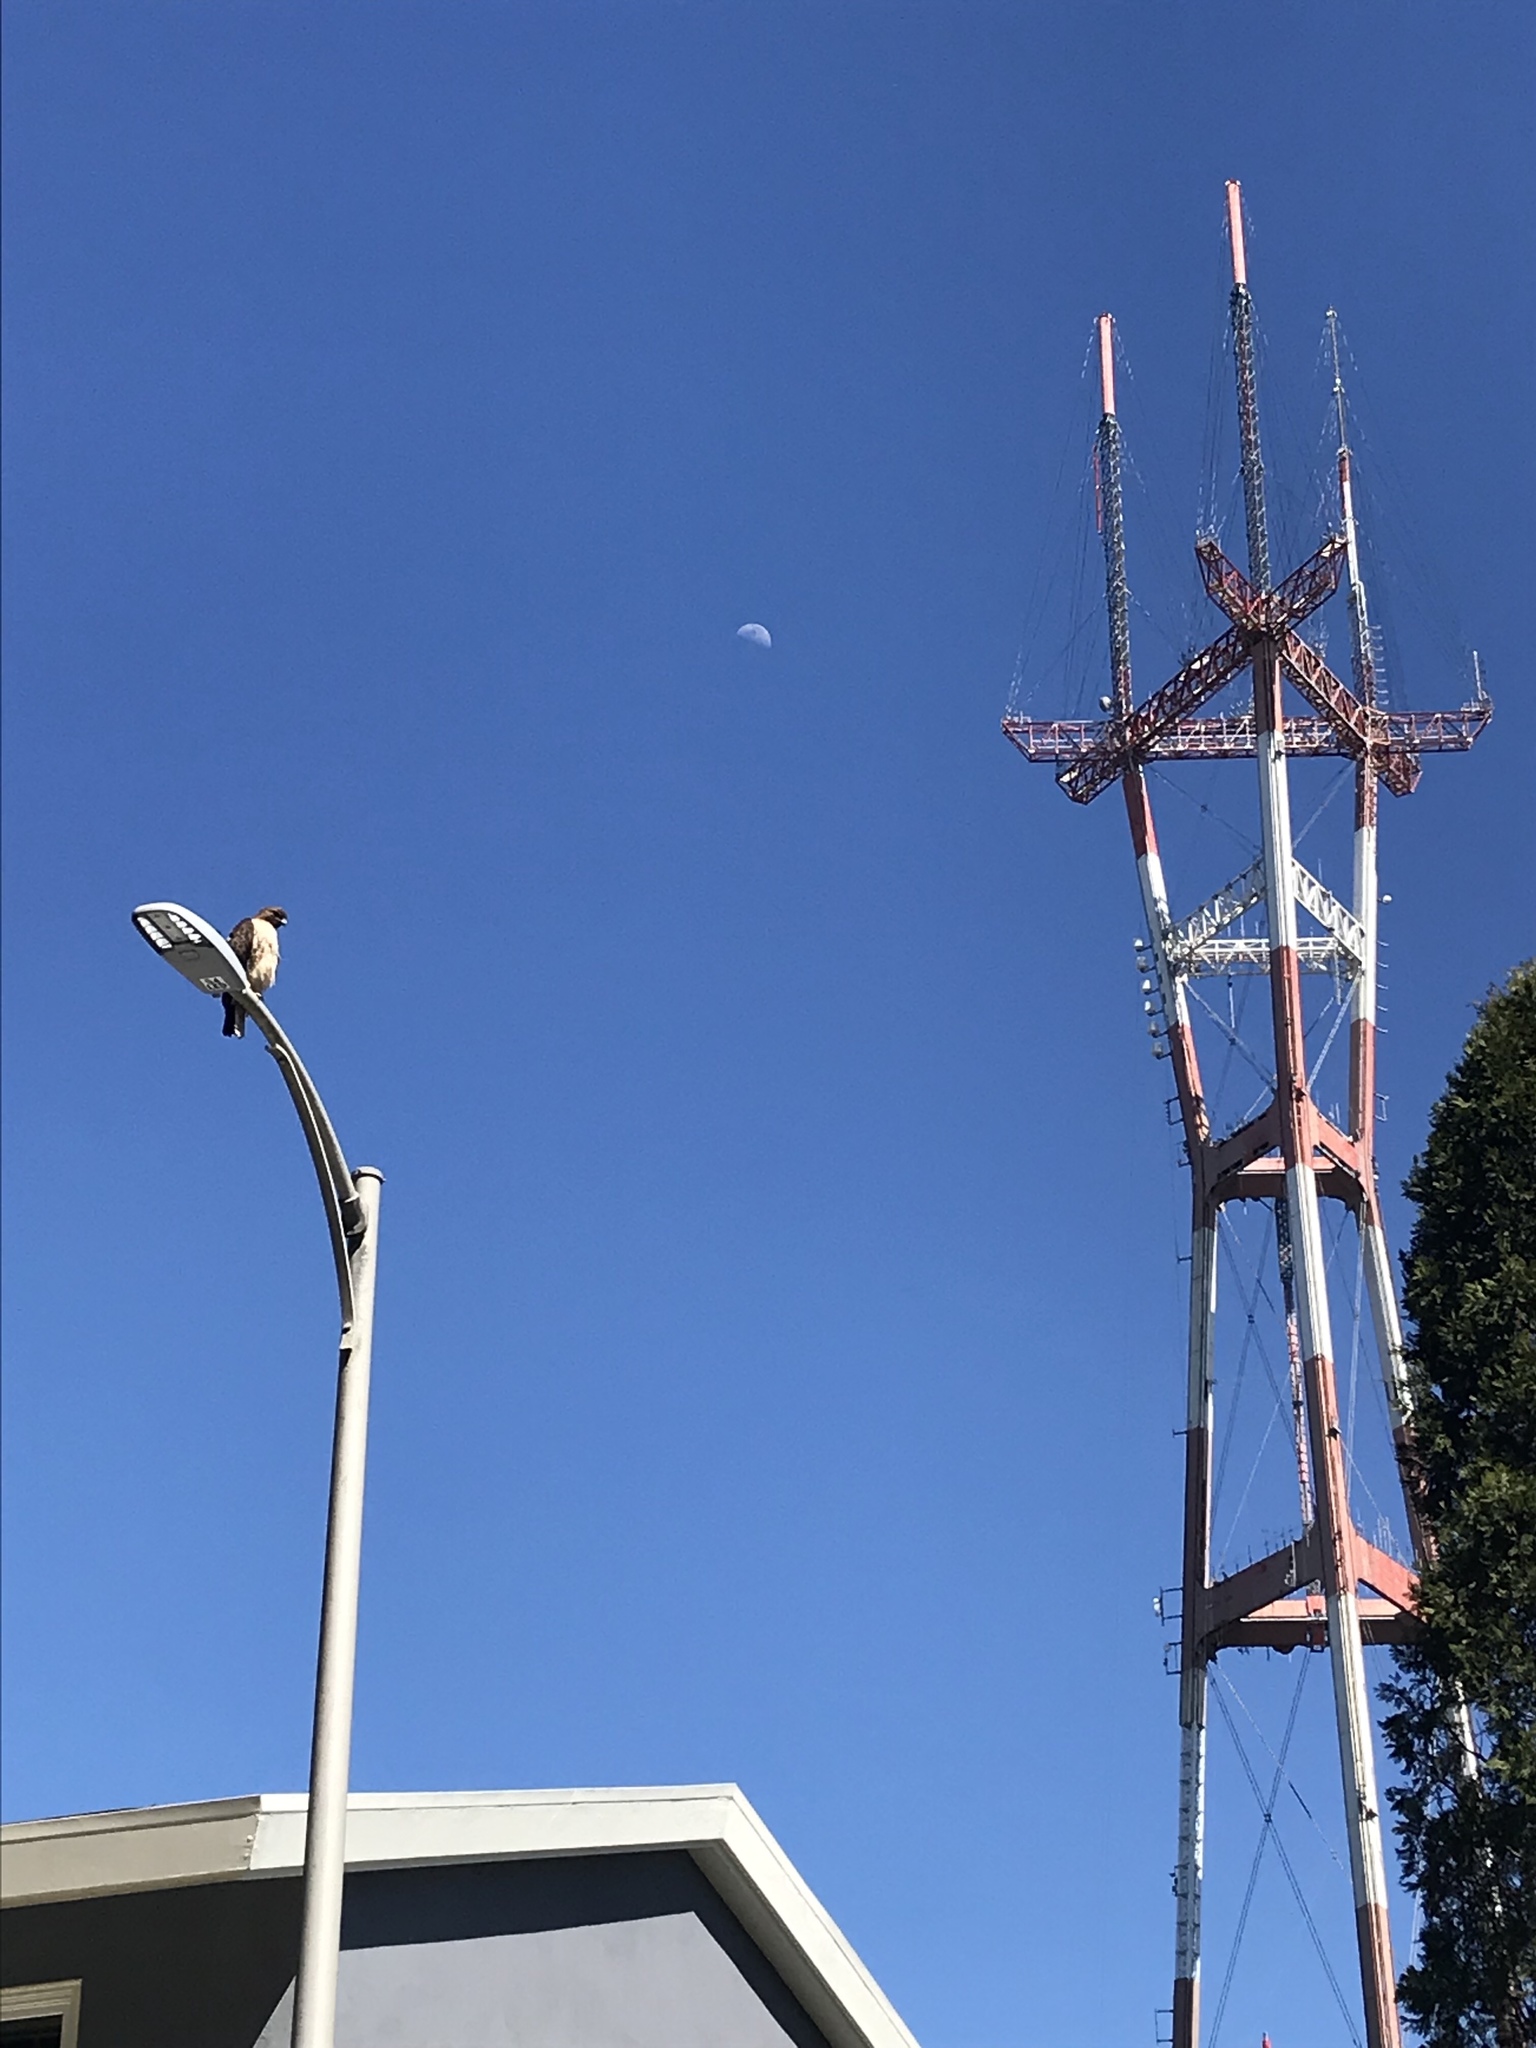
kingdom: Animalia
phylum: Chordata
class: Aves
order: Accipitriformes
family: Accipitridae
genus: Buteo
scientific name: Buteo jamaicensis
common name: Red-tailed hawk
